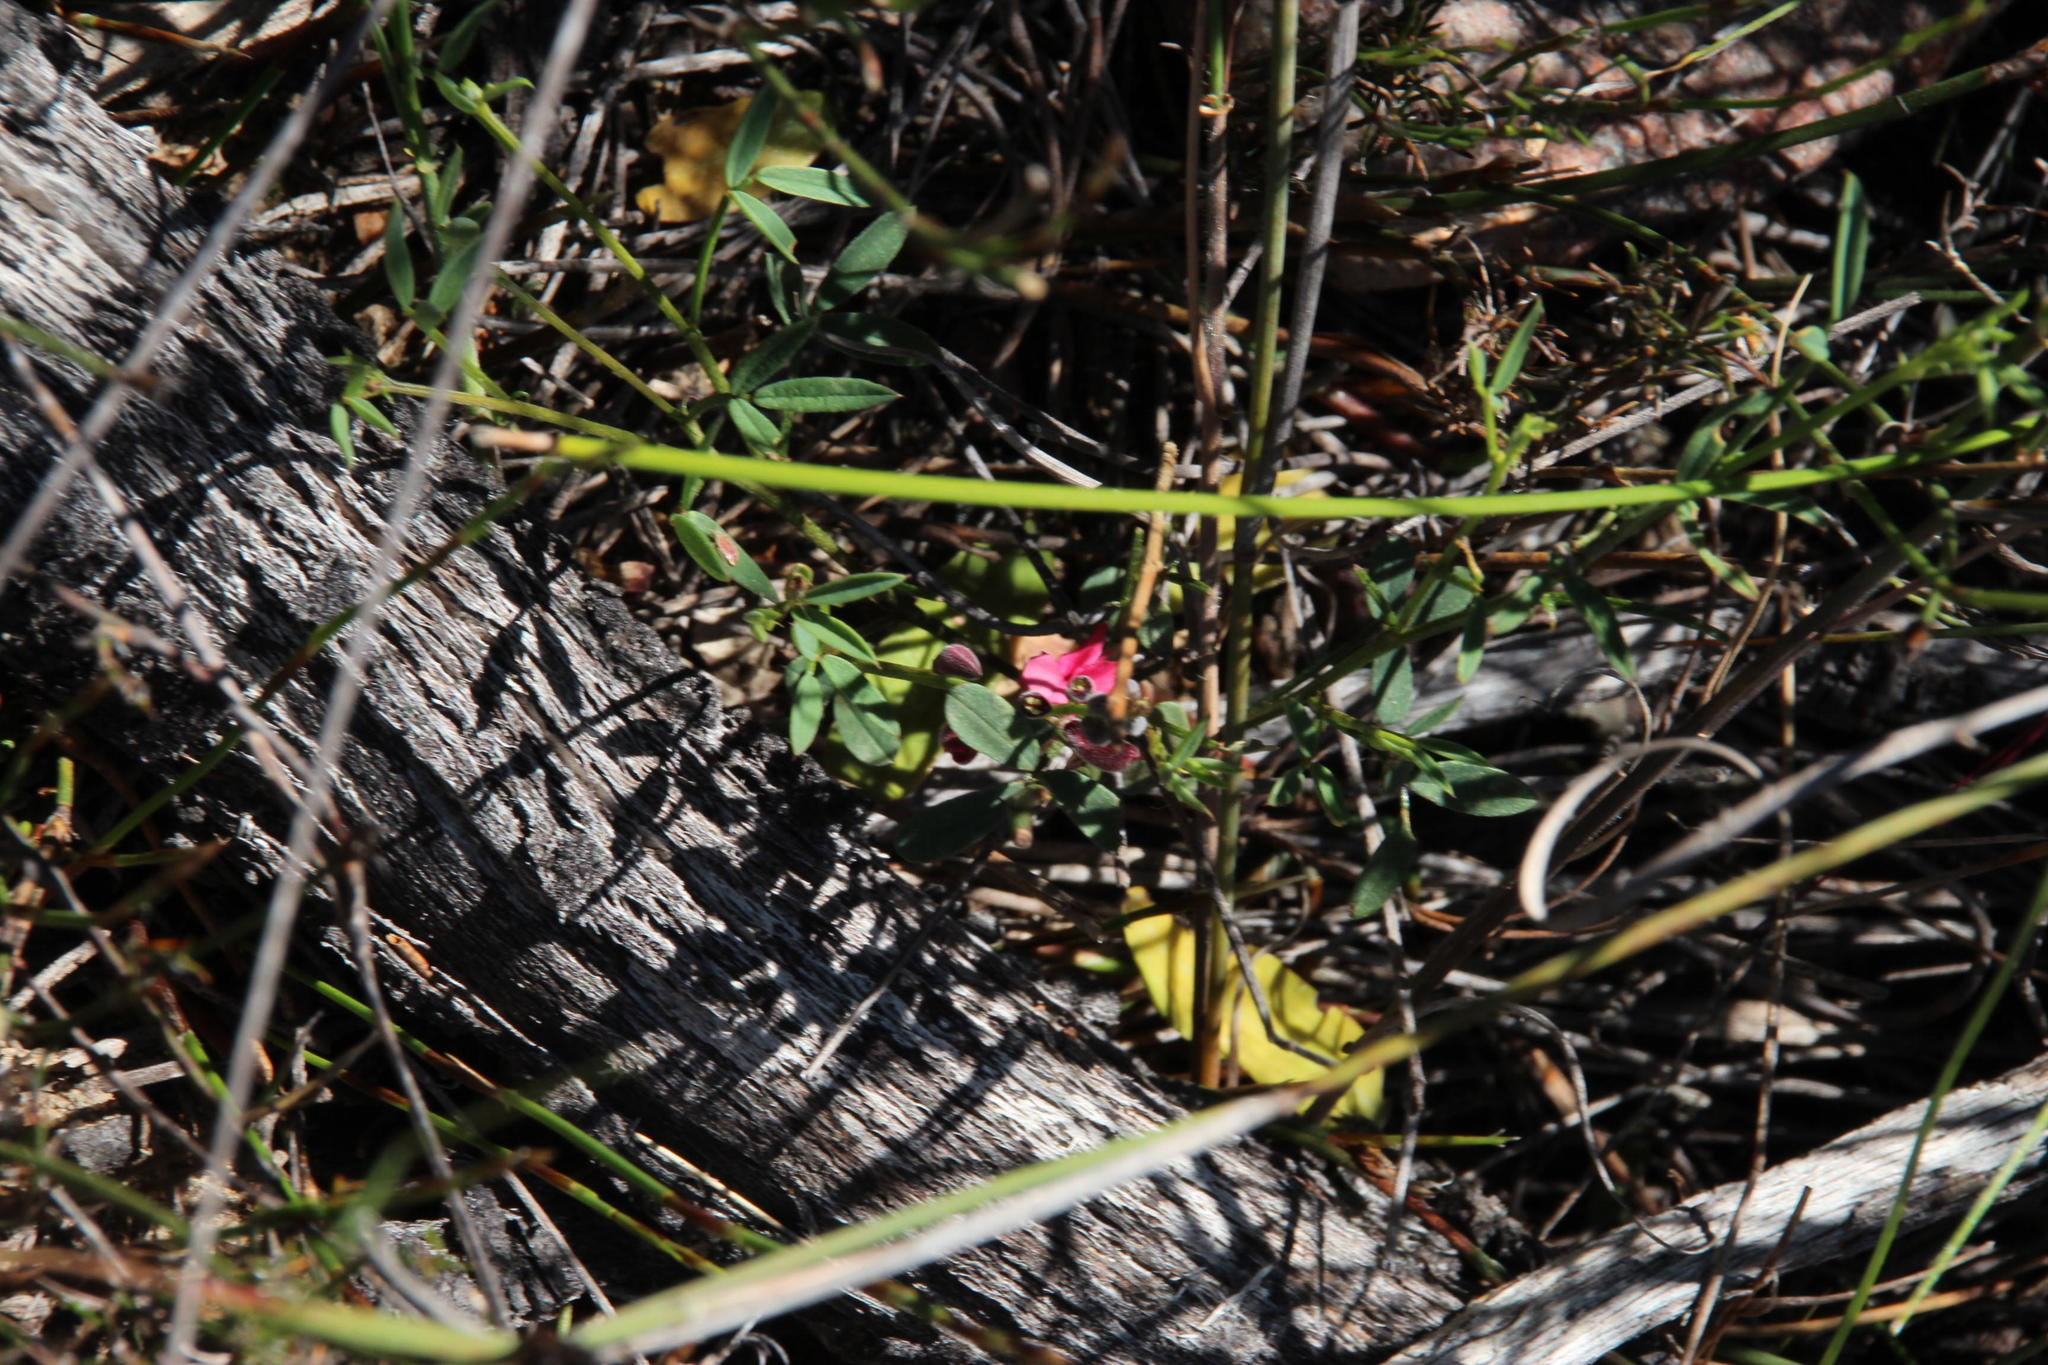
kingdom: Plantae
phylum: Tracheophyta
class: Magnoliopsida
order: Fabales
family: Fabaceae
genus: Indigofera
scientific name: Indigofera heterophylla
